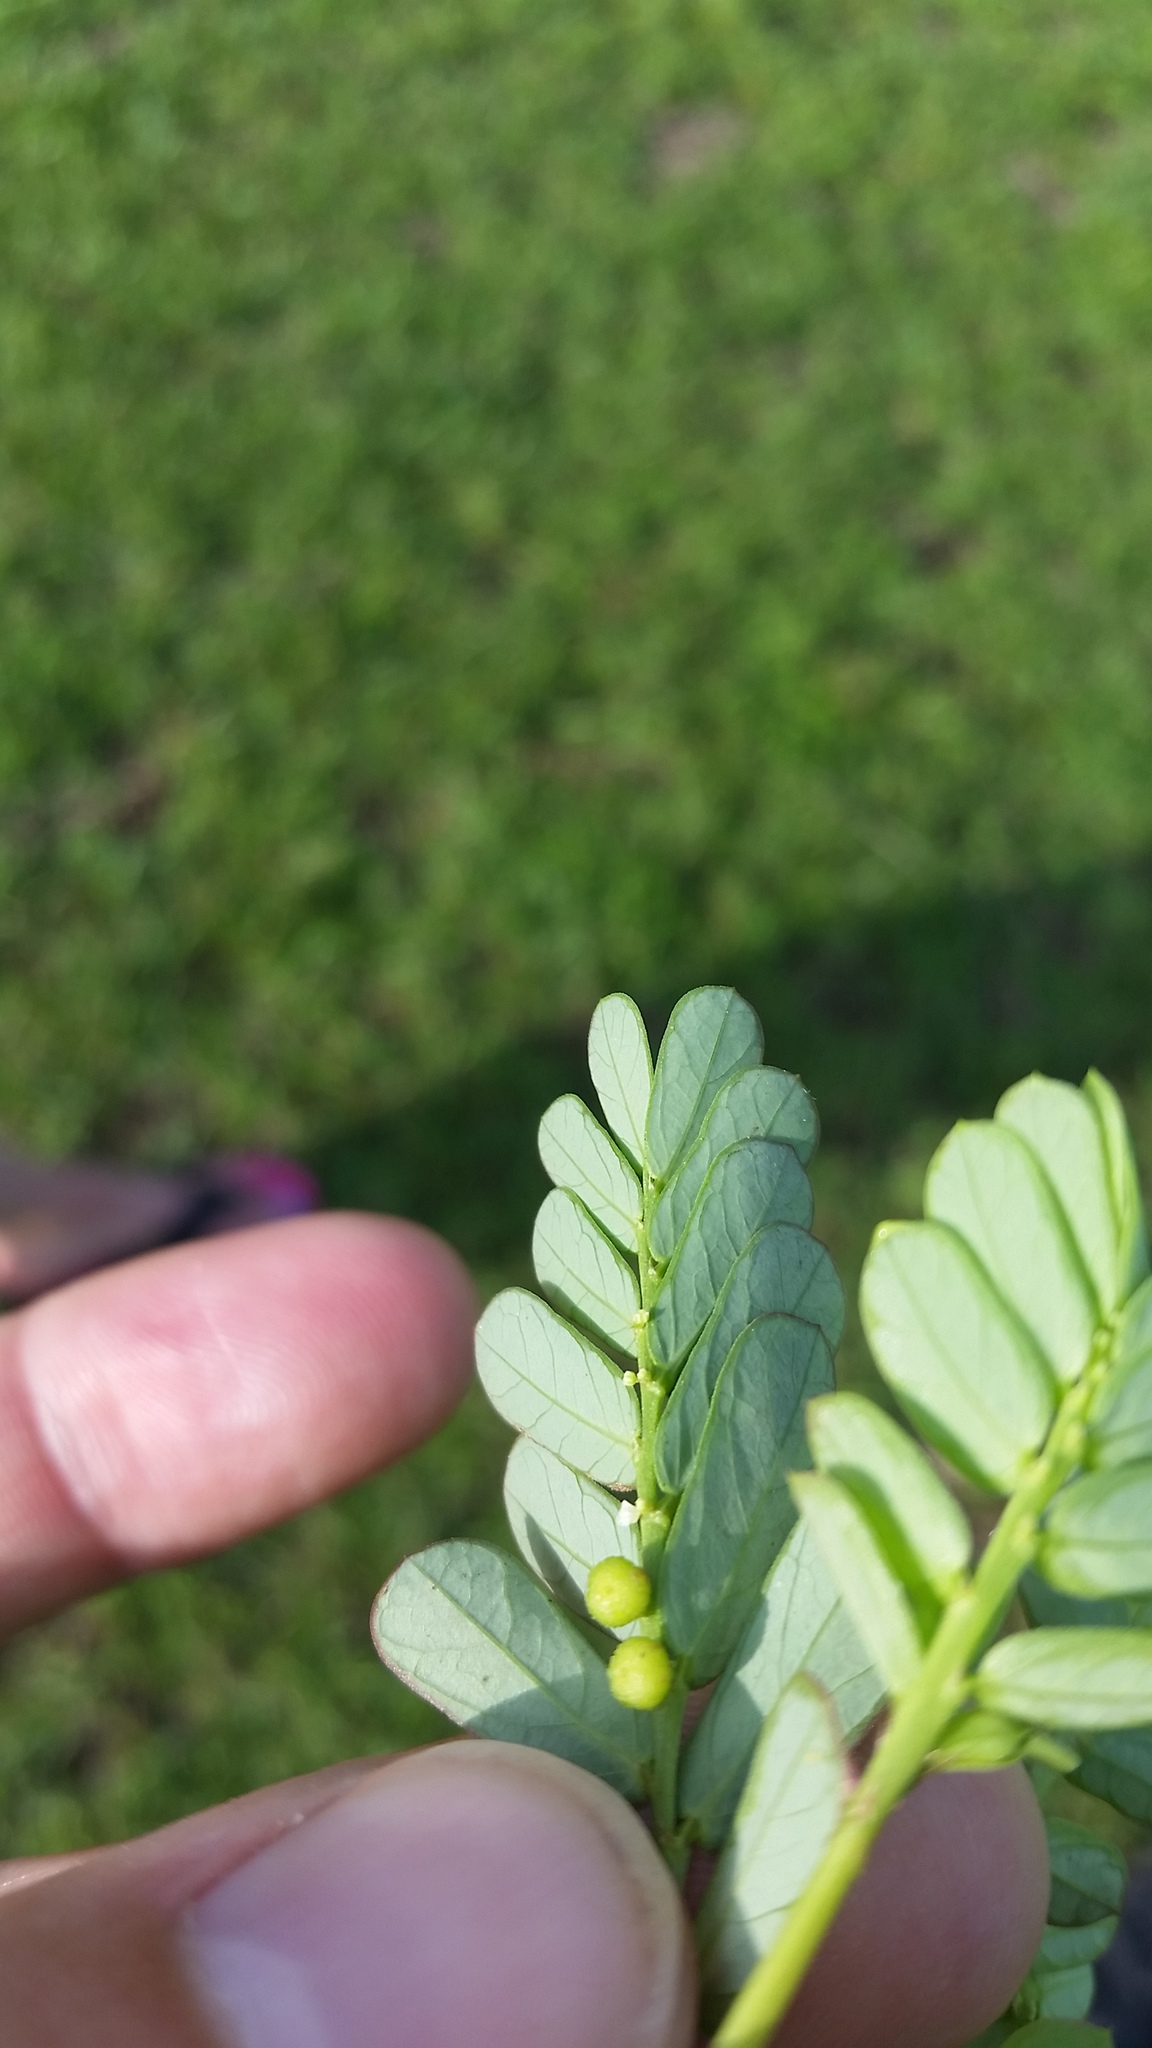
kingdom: Plantae
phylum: Tracheophyta
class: Magnoliopsida
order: Malpighiales
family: Phyllanthaceae
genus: Phyllanthus
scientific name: Phyllanthus urinaria
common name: Chamber bitter
